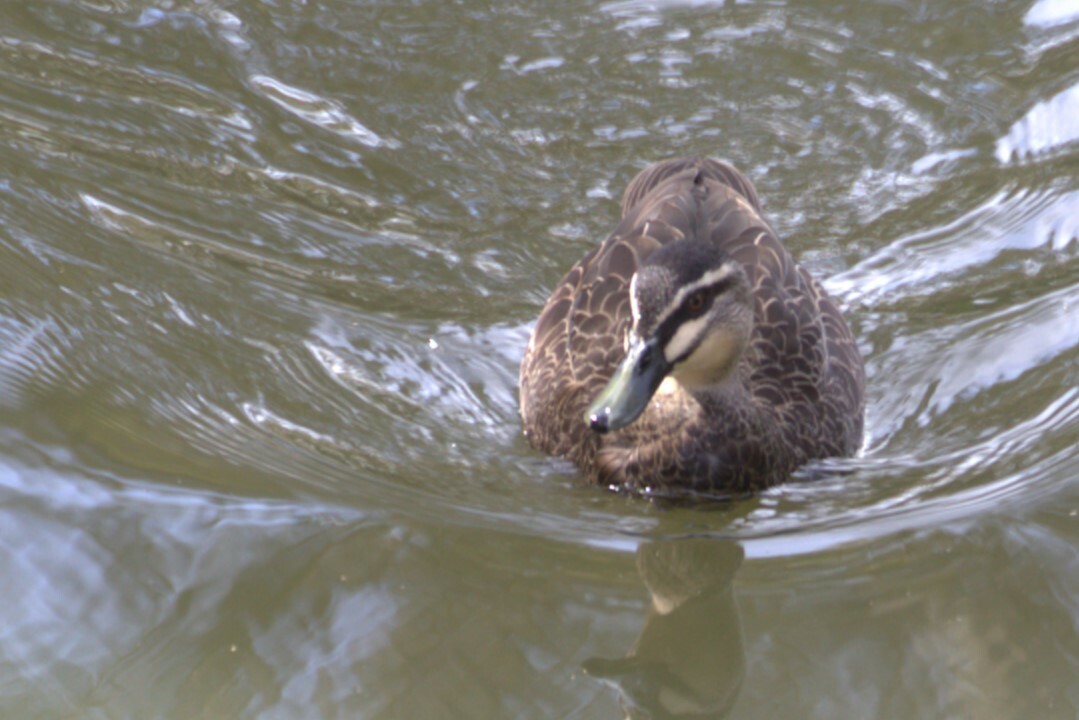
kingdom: Animalia
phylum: Chordata
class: Aves
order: Anseriformes
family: Anatidae
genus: Anas
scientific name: Anas superciliosa
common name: Pacific black duck
